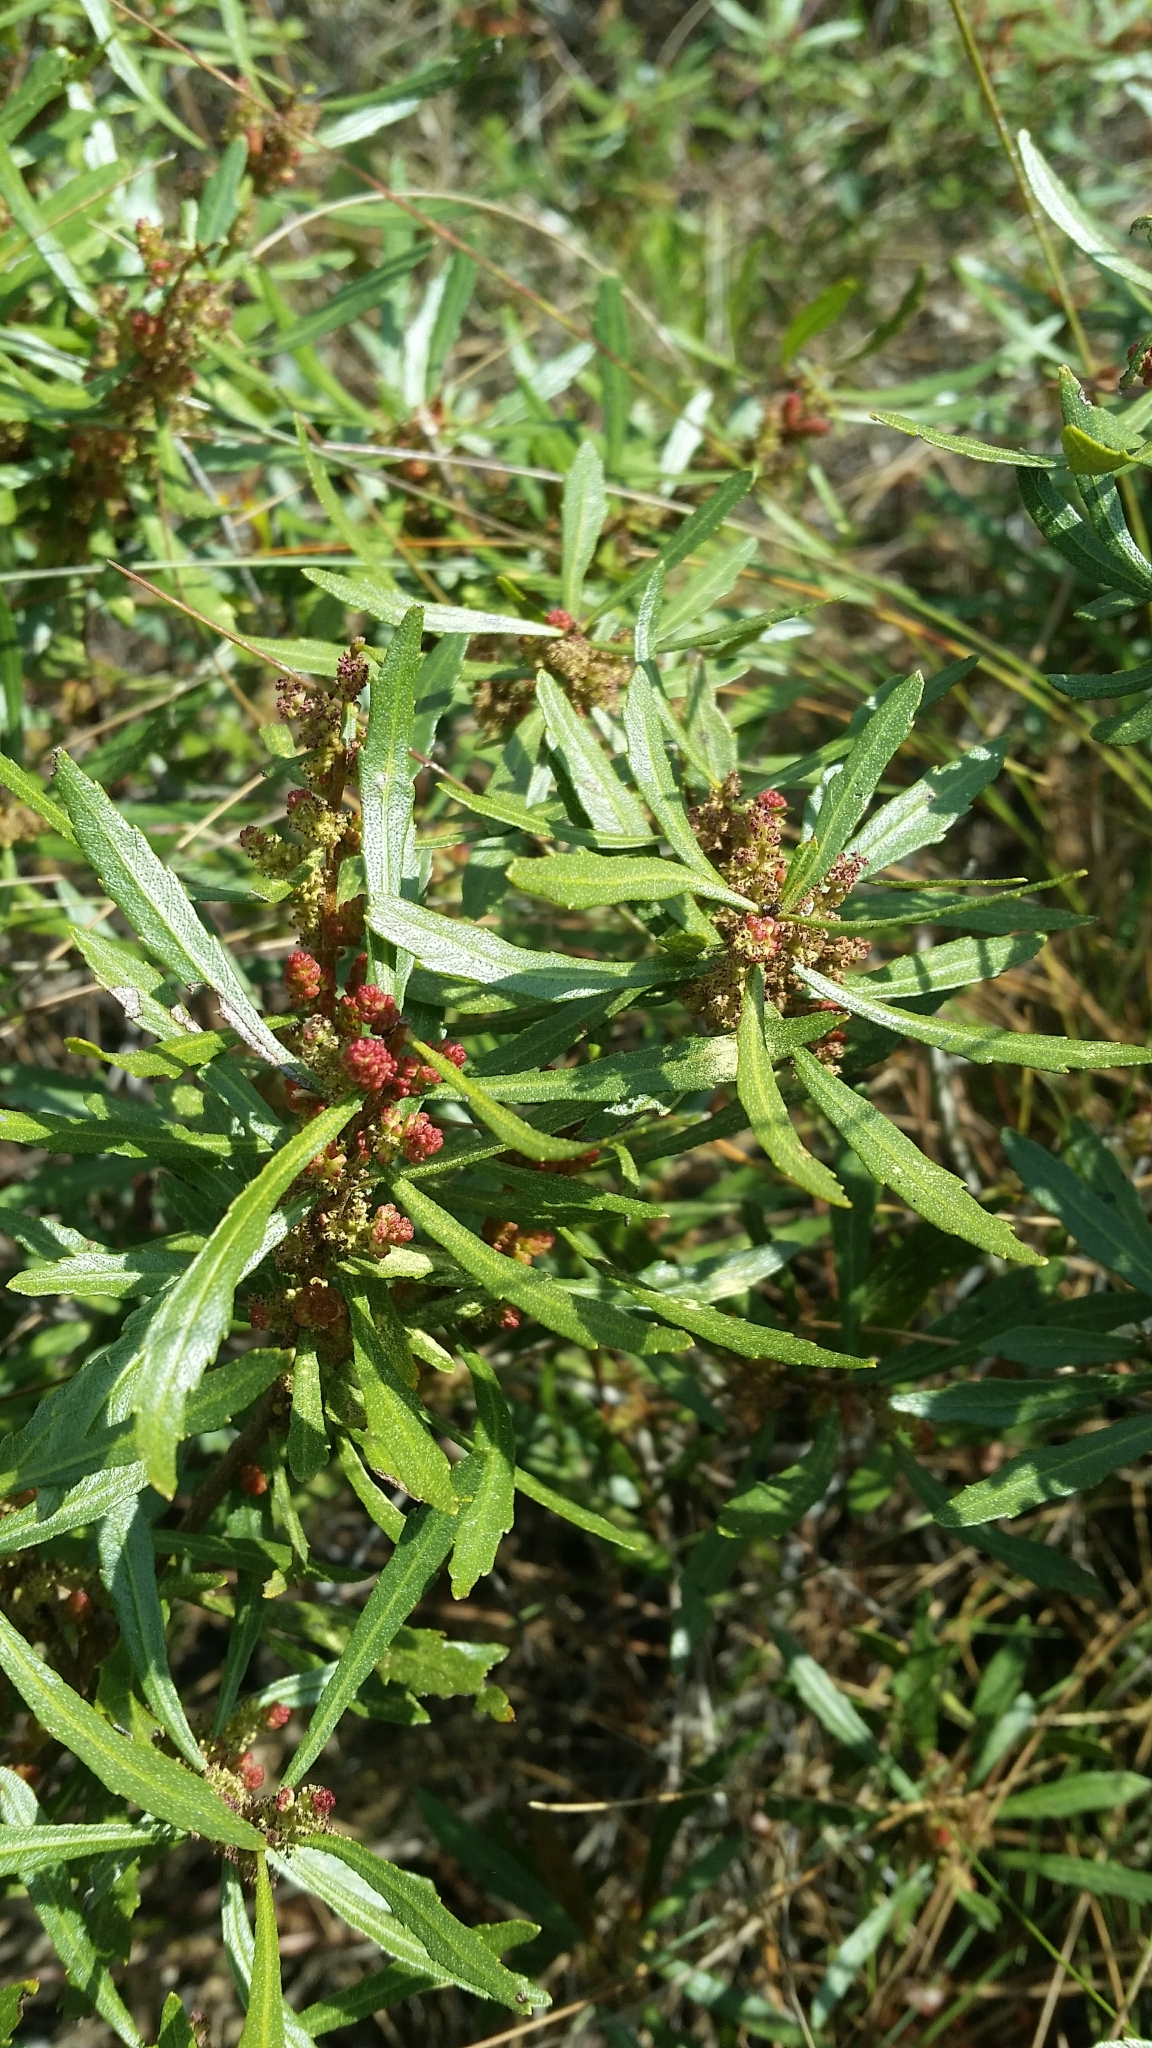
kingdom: Plantae
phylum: Tracheophyta
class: Magnoliopsida
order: Fagales
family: Myricaceae
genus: Morella
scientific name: Morella cerifera
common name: Wax myrtle
